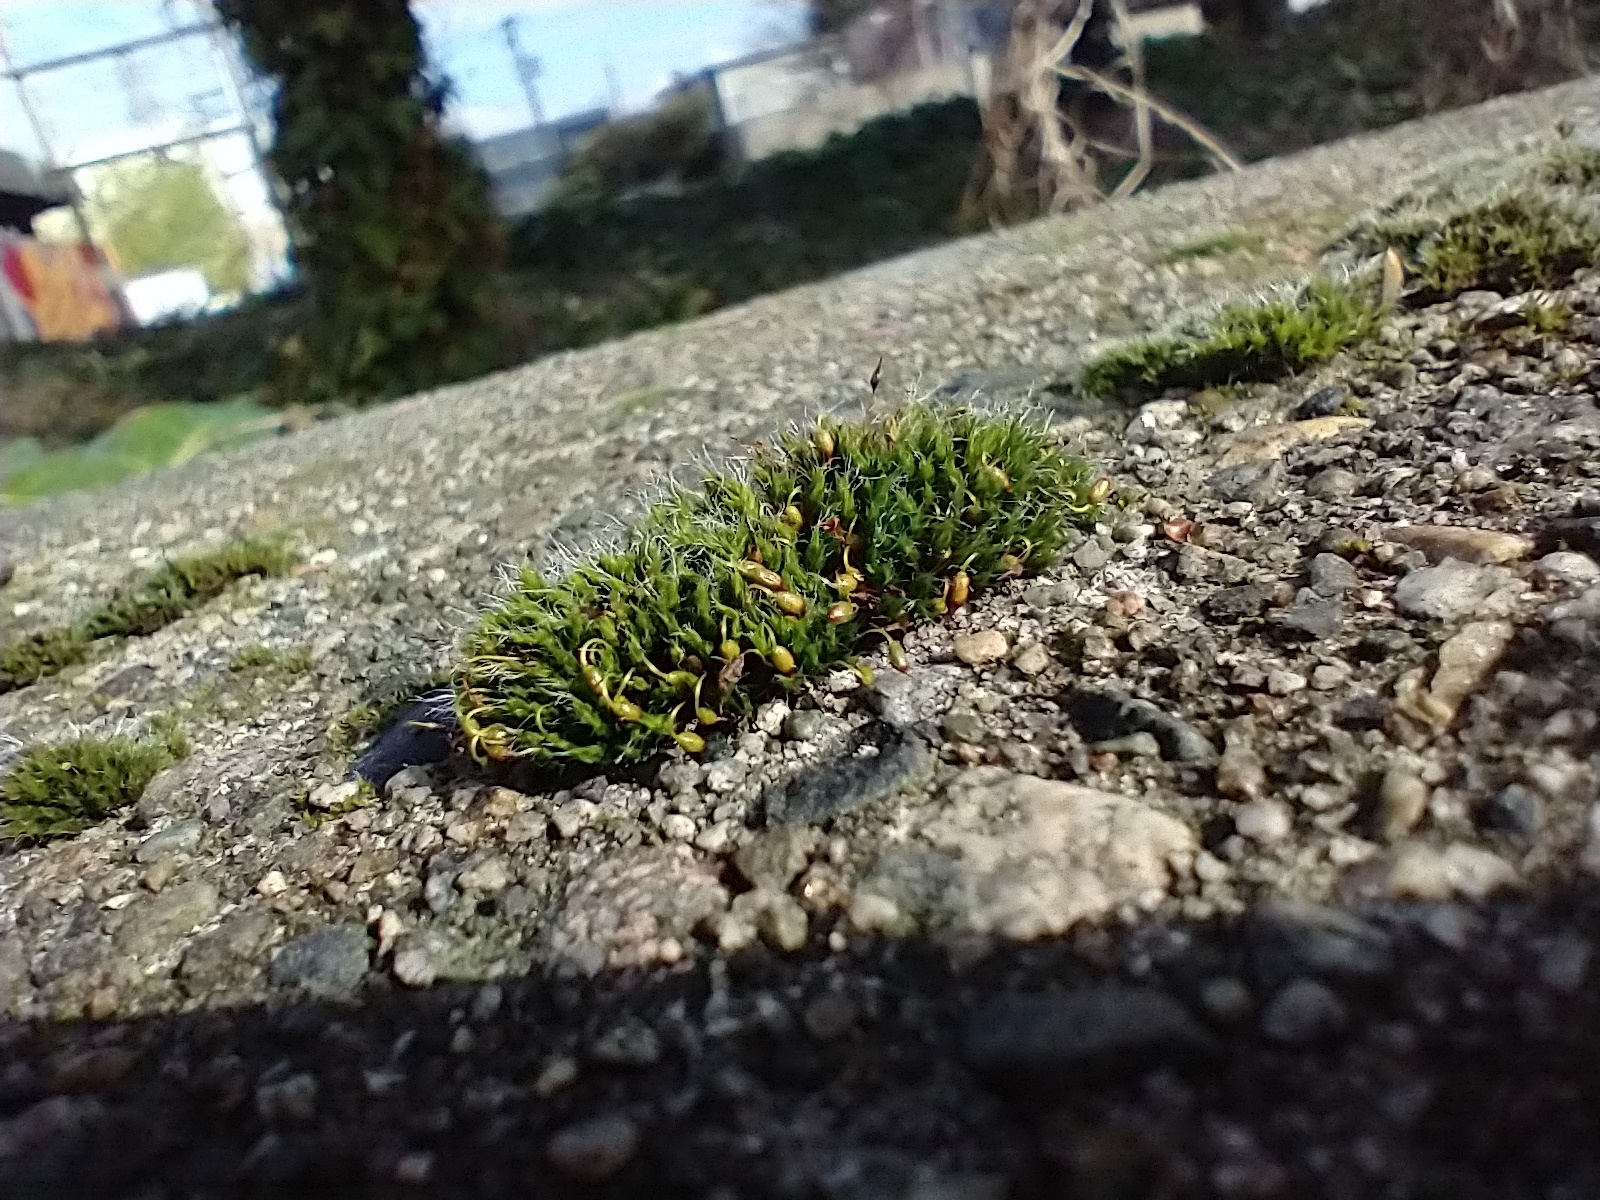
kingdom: Plantae
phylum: Bryophyta
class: Bryopsida
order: Grimmiales
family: Grimmiaceae
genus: Grimmia
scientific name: Grimmia pulvinata
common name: Grey-cushioned grimmia
